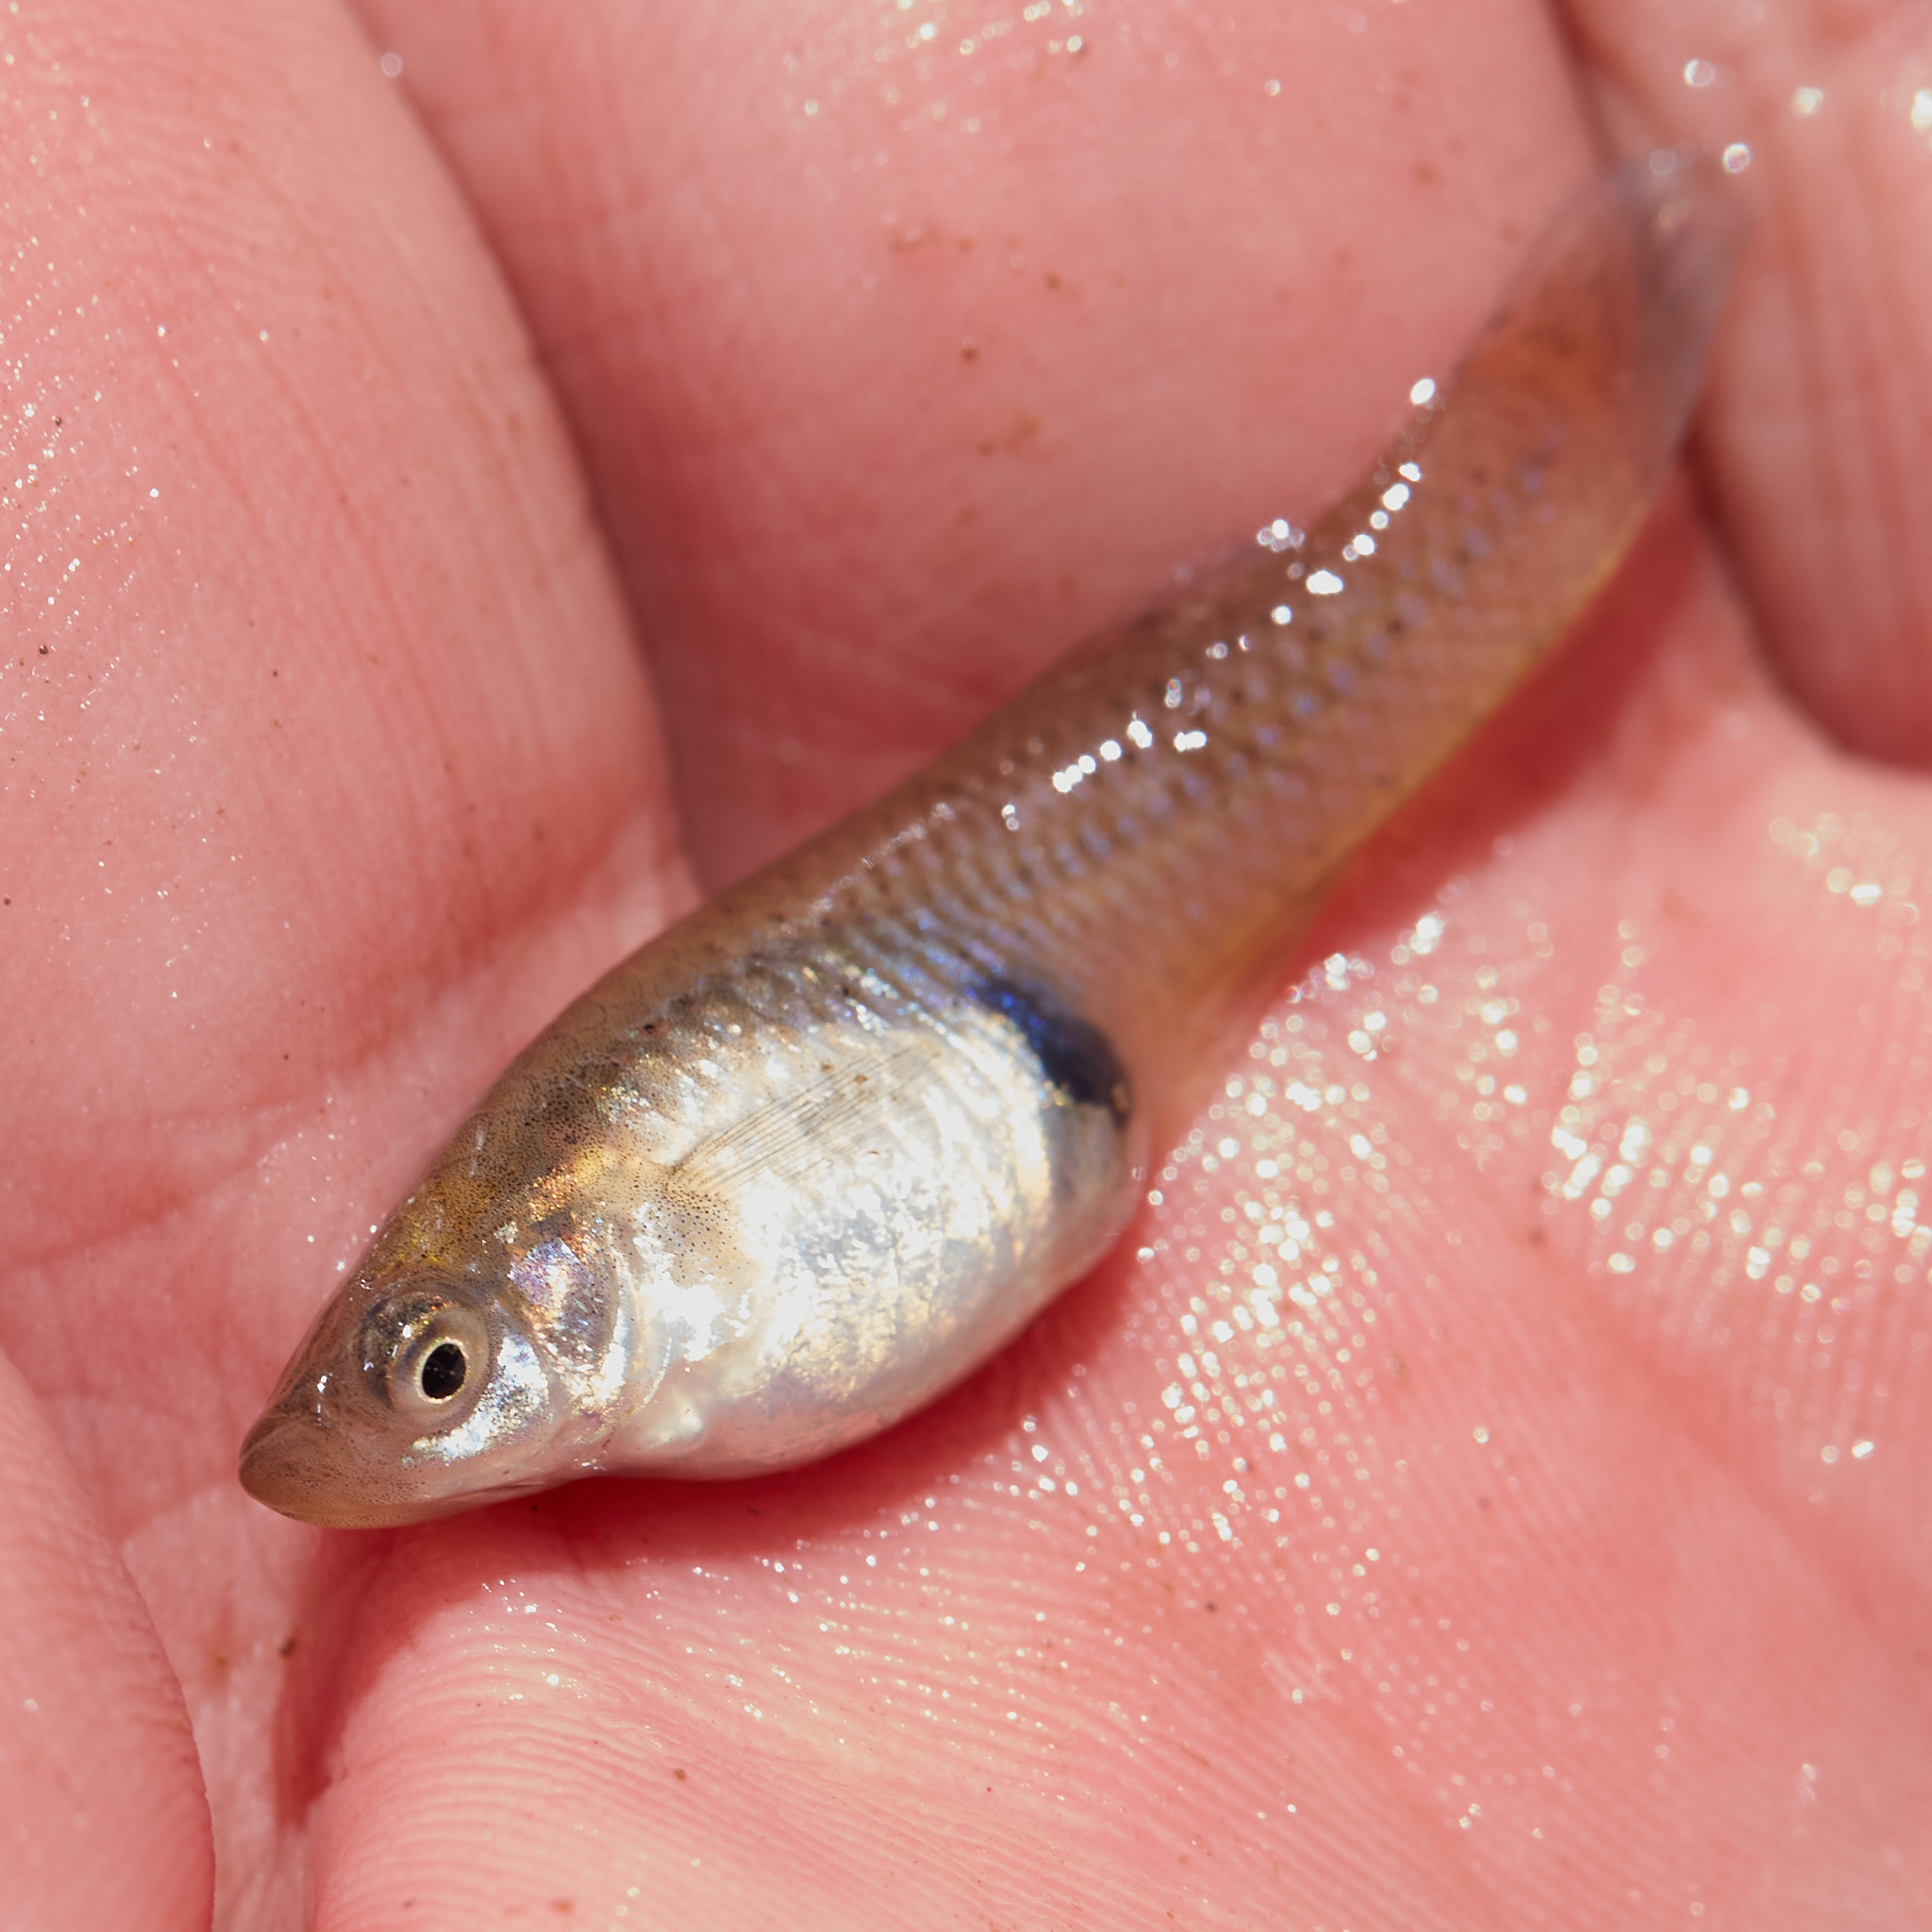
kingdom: Animalia
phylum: Chordata
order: Cyprinodontiformes
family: Poeciliidae
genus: Gambusia
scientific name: Gambusia affinis
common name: Mosquitofish
